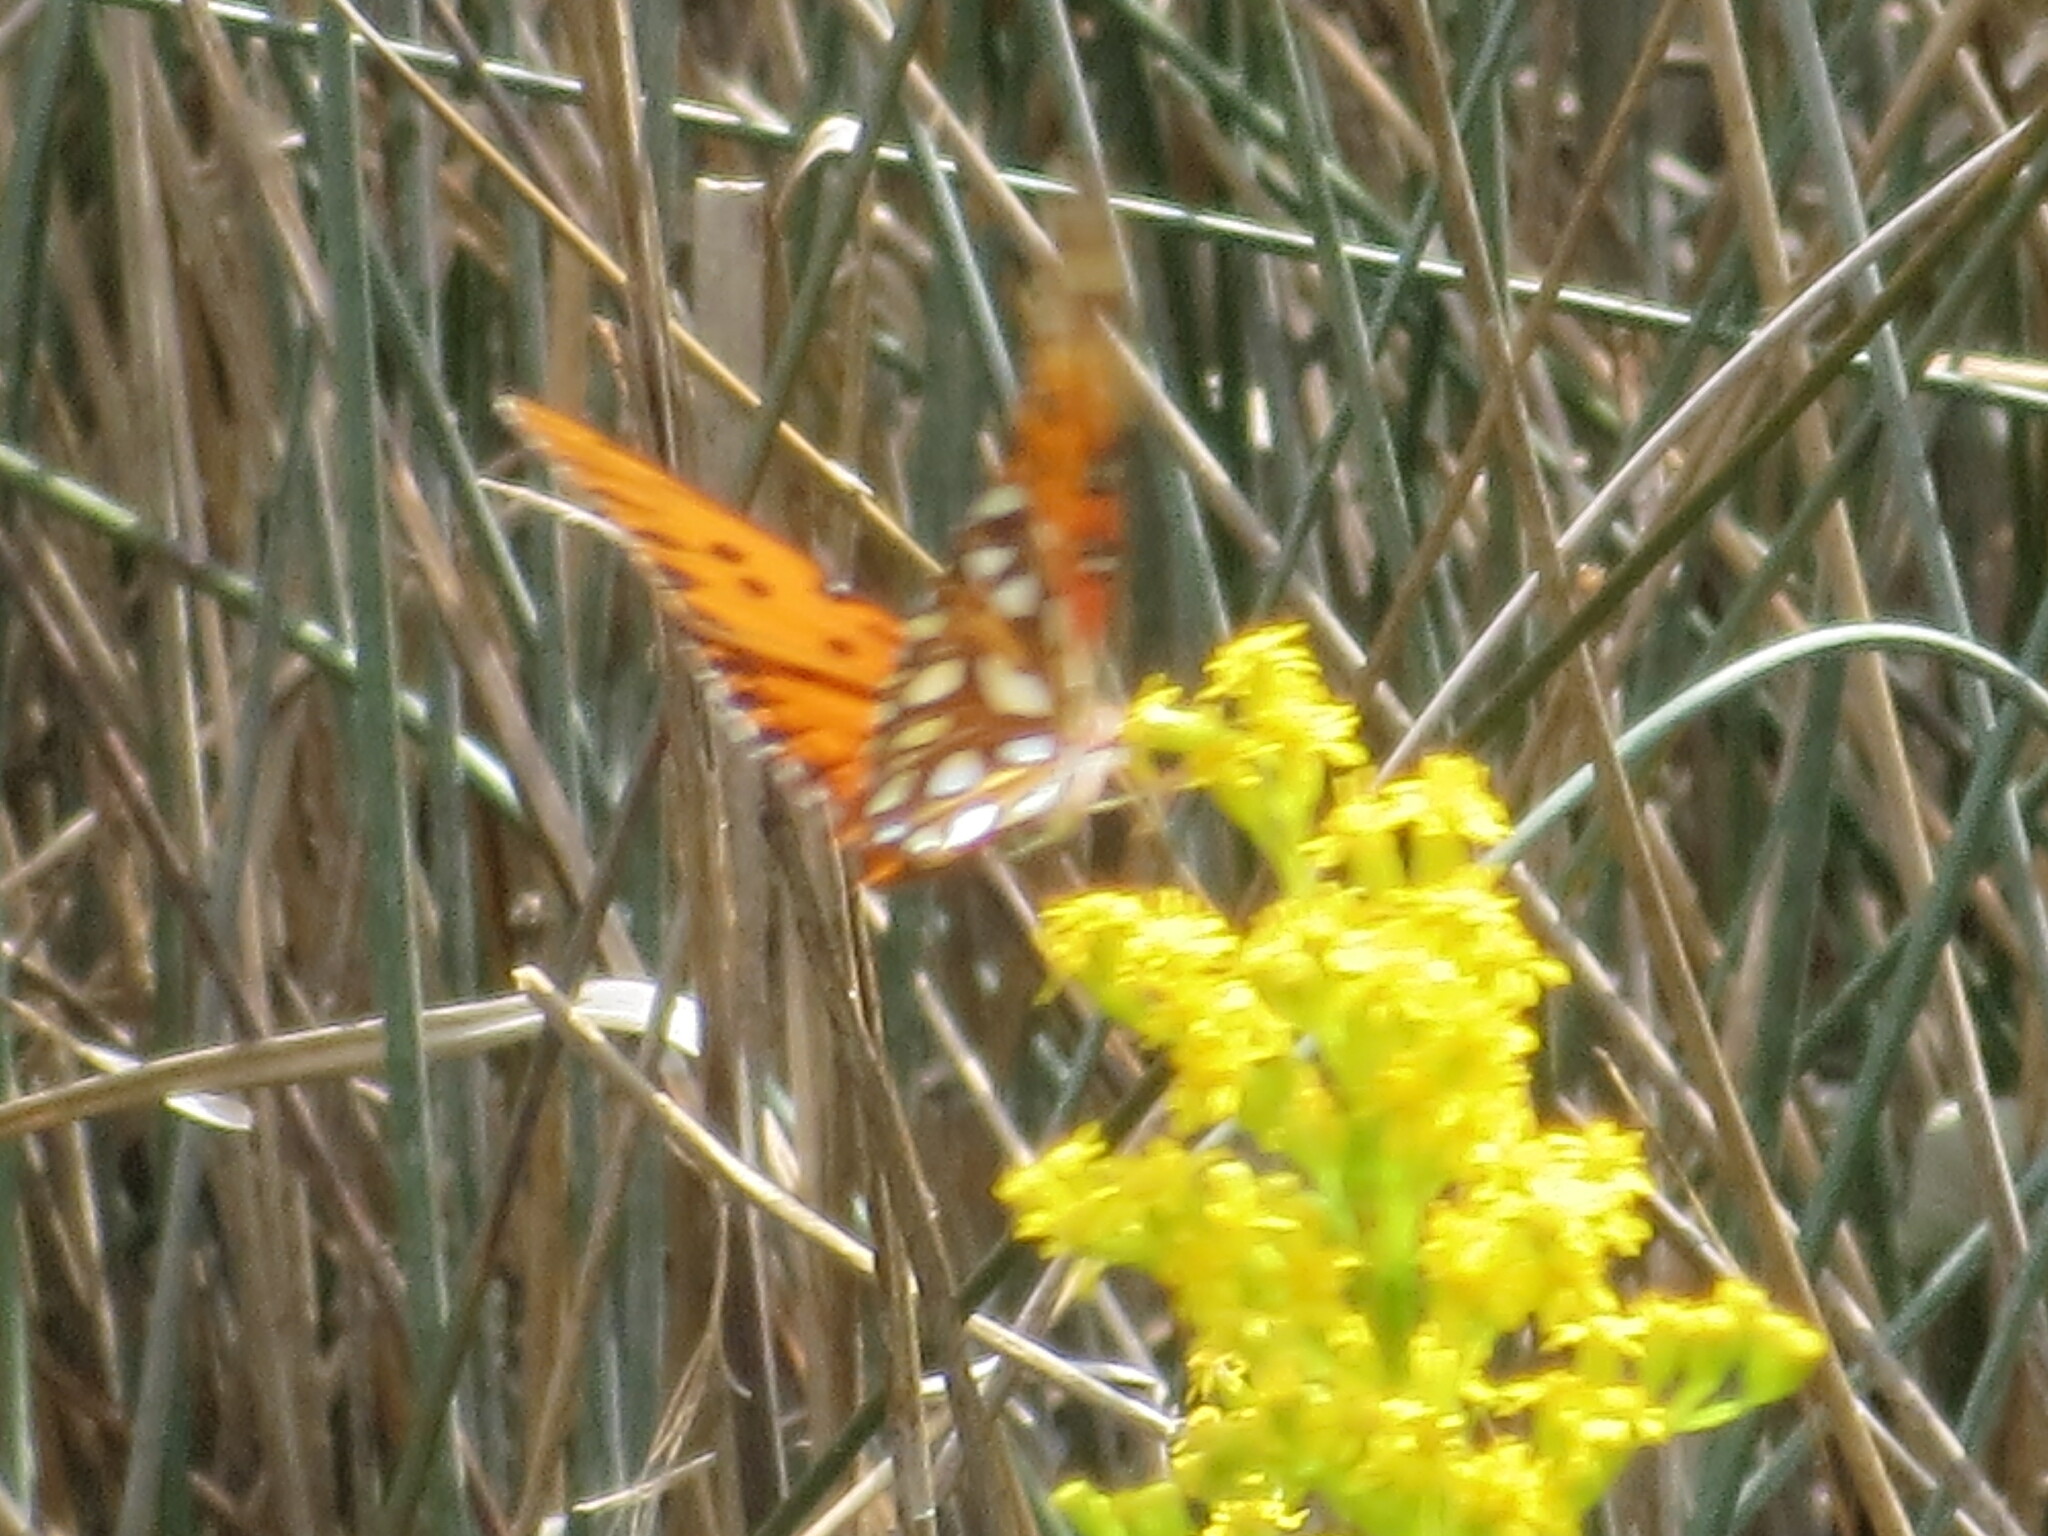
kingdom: Animalia
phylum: Arthropoda
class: Insecta
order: Lepidoptera
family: Nymphalidae
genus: Dione
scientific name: Dione vanillae
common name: Gulf fritillary
